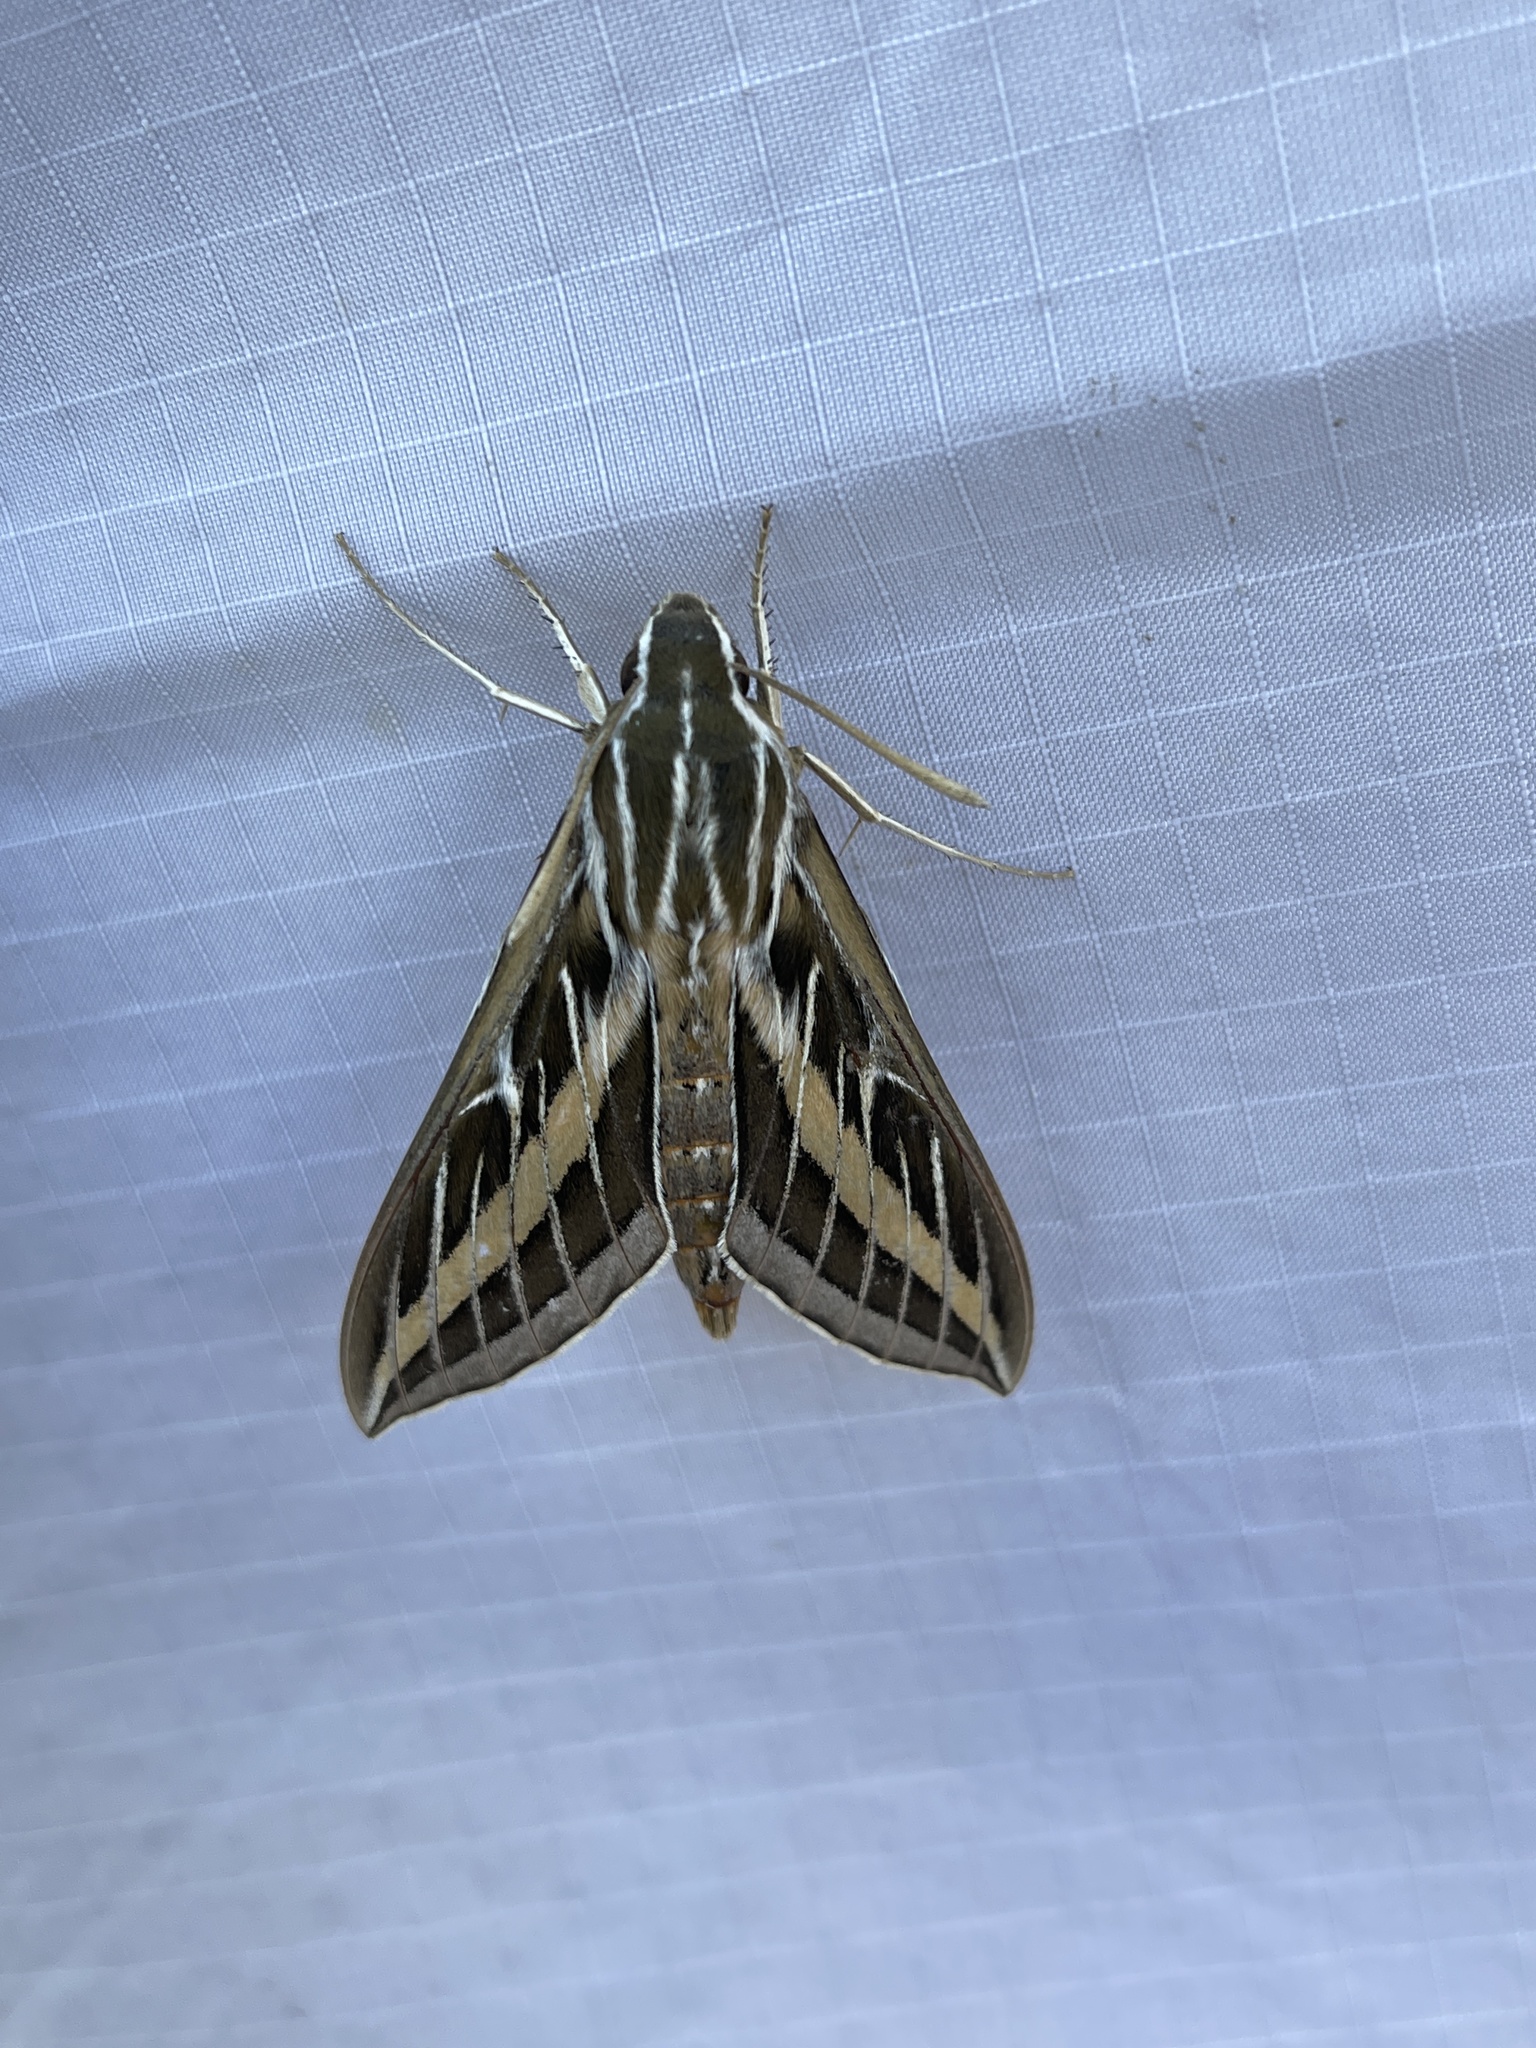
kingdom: Animalia
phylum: Arthropoda
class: Insecta
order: Lepidoptera
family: Sphingidae
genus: Hyles
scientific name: Hyles lineata
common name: White-lined sphinx
